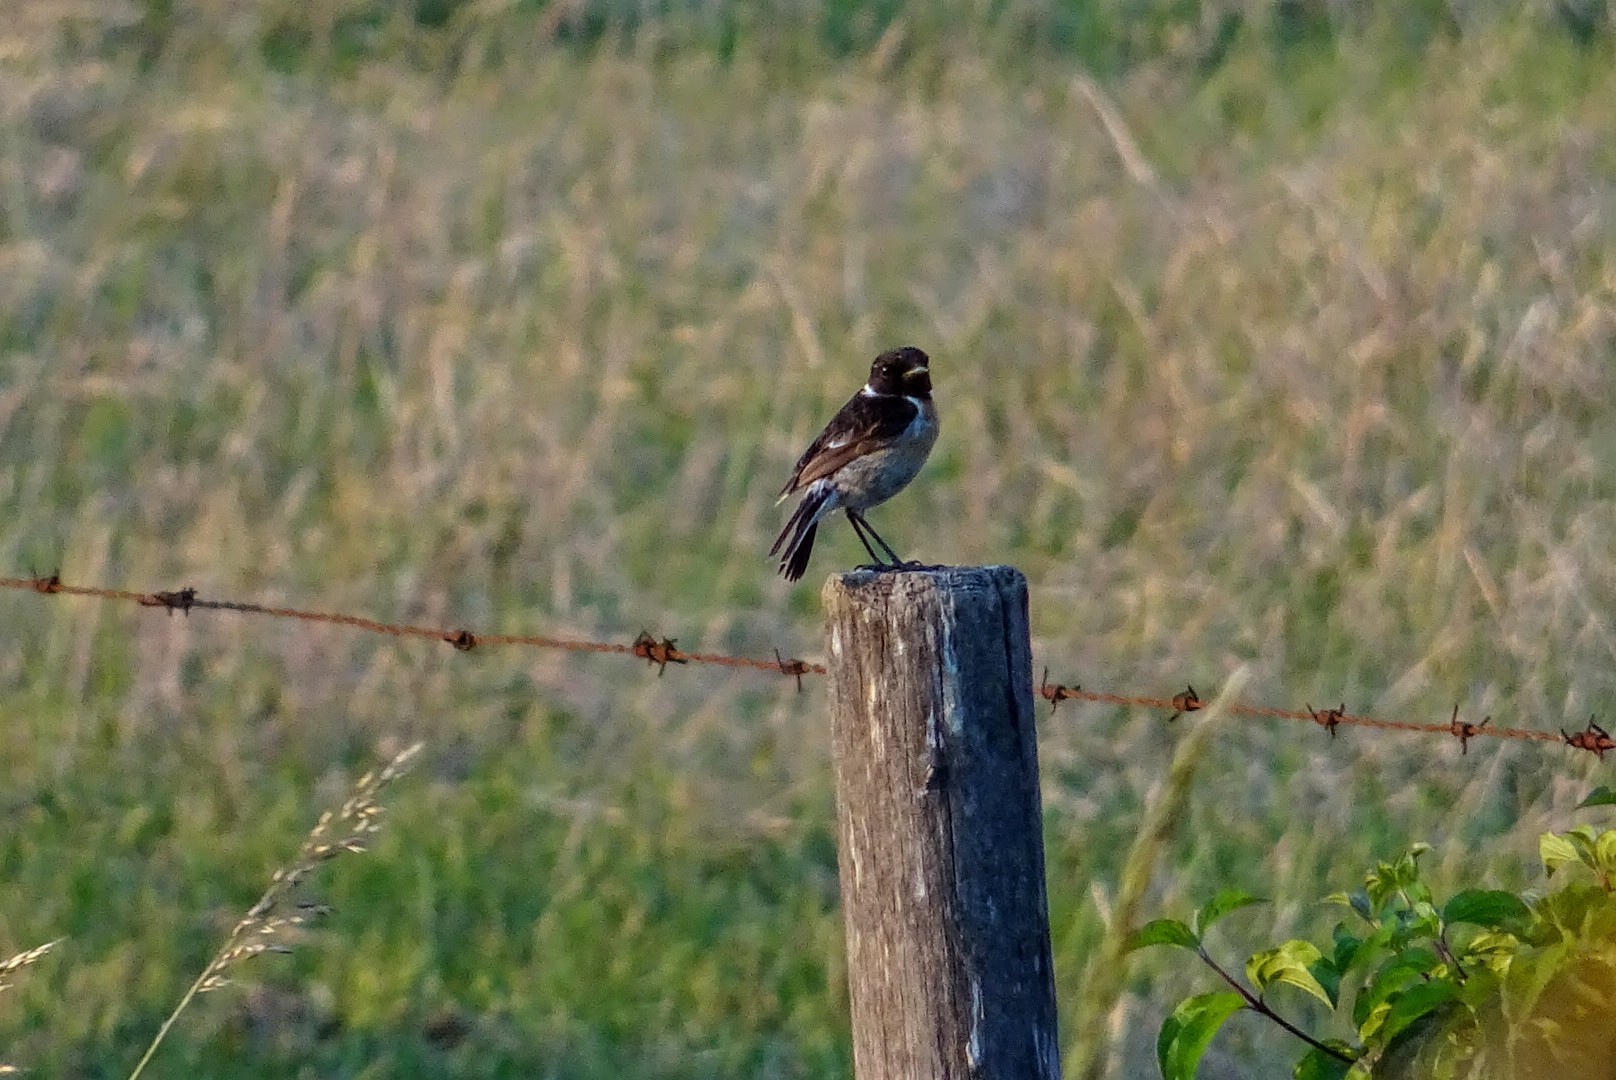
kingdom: Animalia
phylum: Chordata
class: Aves
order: Passeriformes
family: Muscicapidae
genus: Saxicola
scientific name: Saxicola rubicola
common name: European stonechat
